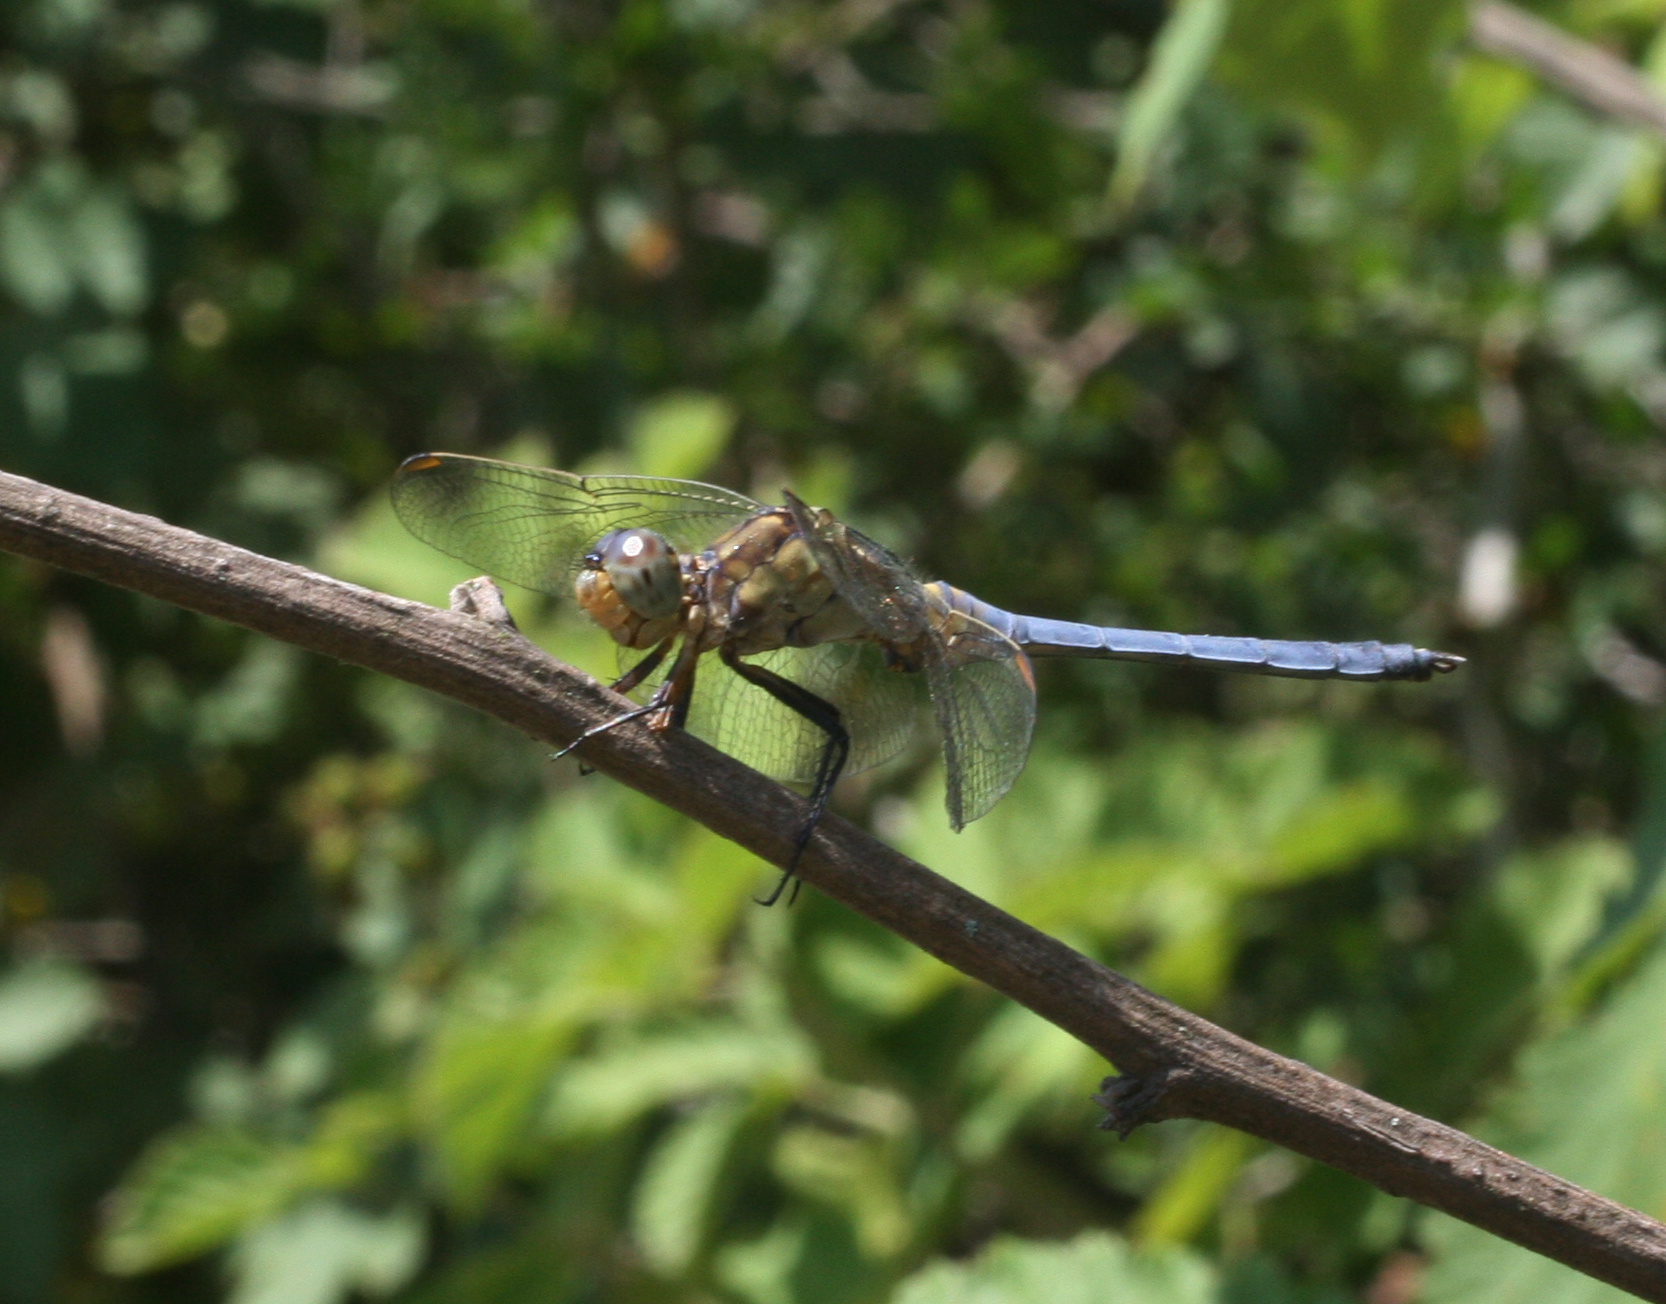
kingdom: Animalia
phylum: Arthropoda
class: Insecta
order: Odonata
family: Libellulidae
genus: Orthetrum
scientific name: Orthetrum coerulescens
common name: Keeled skimmer
